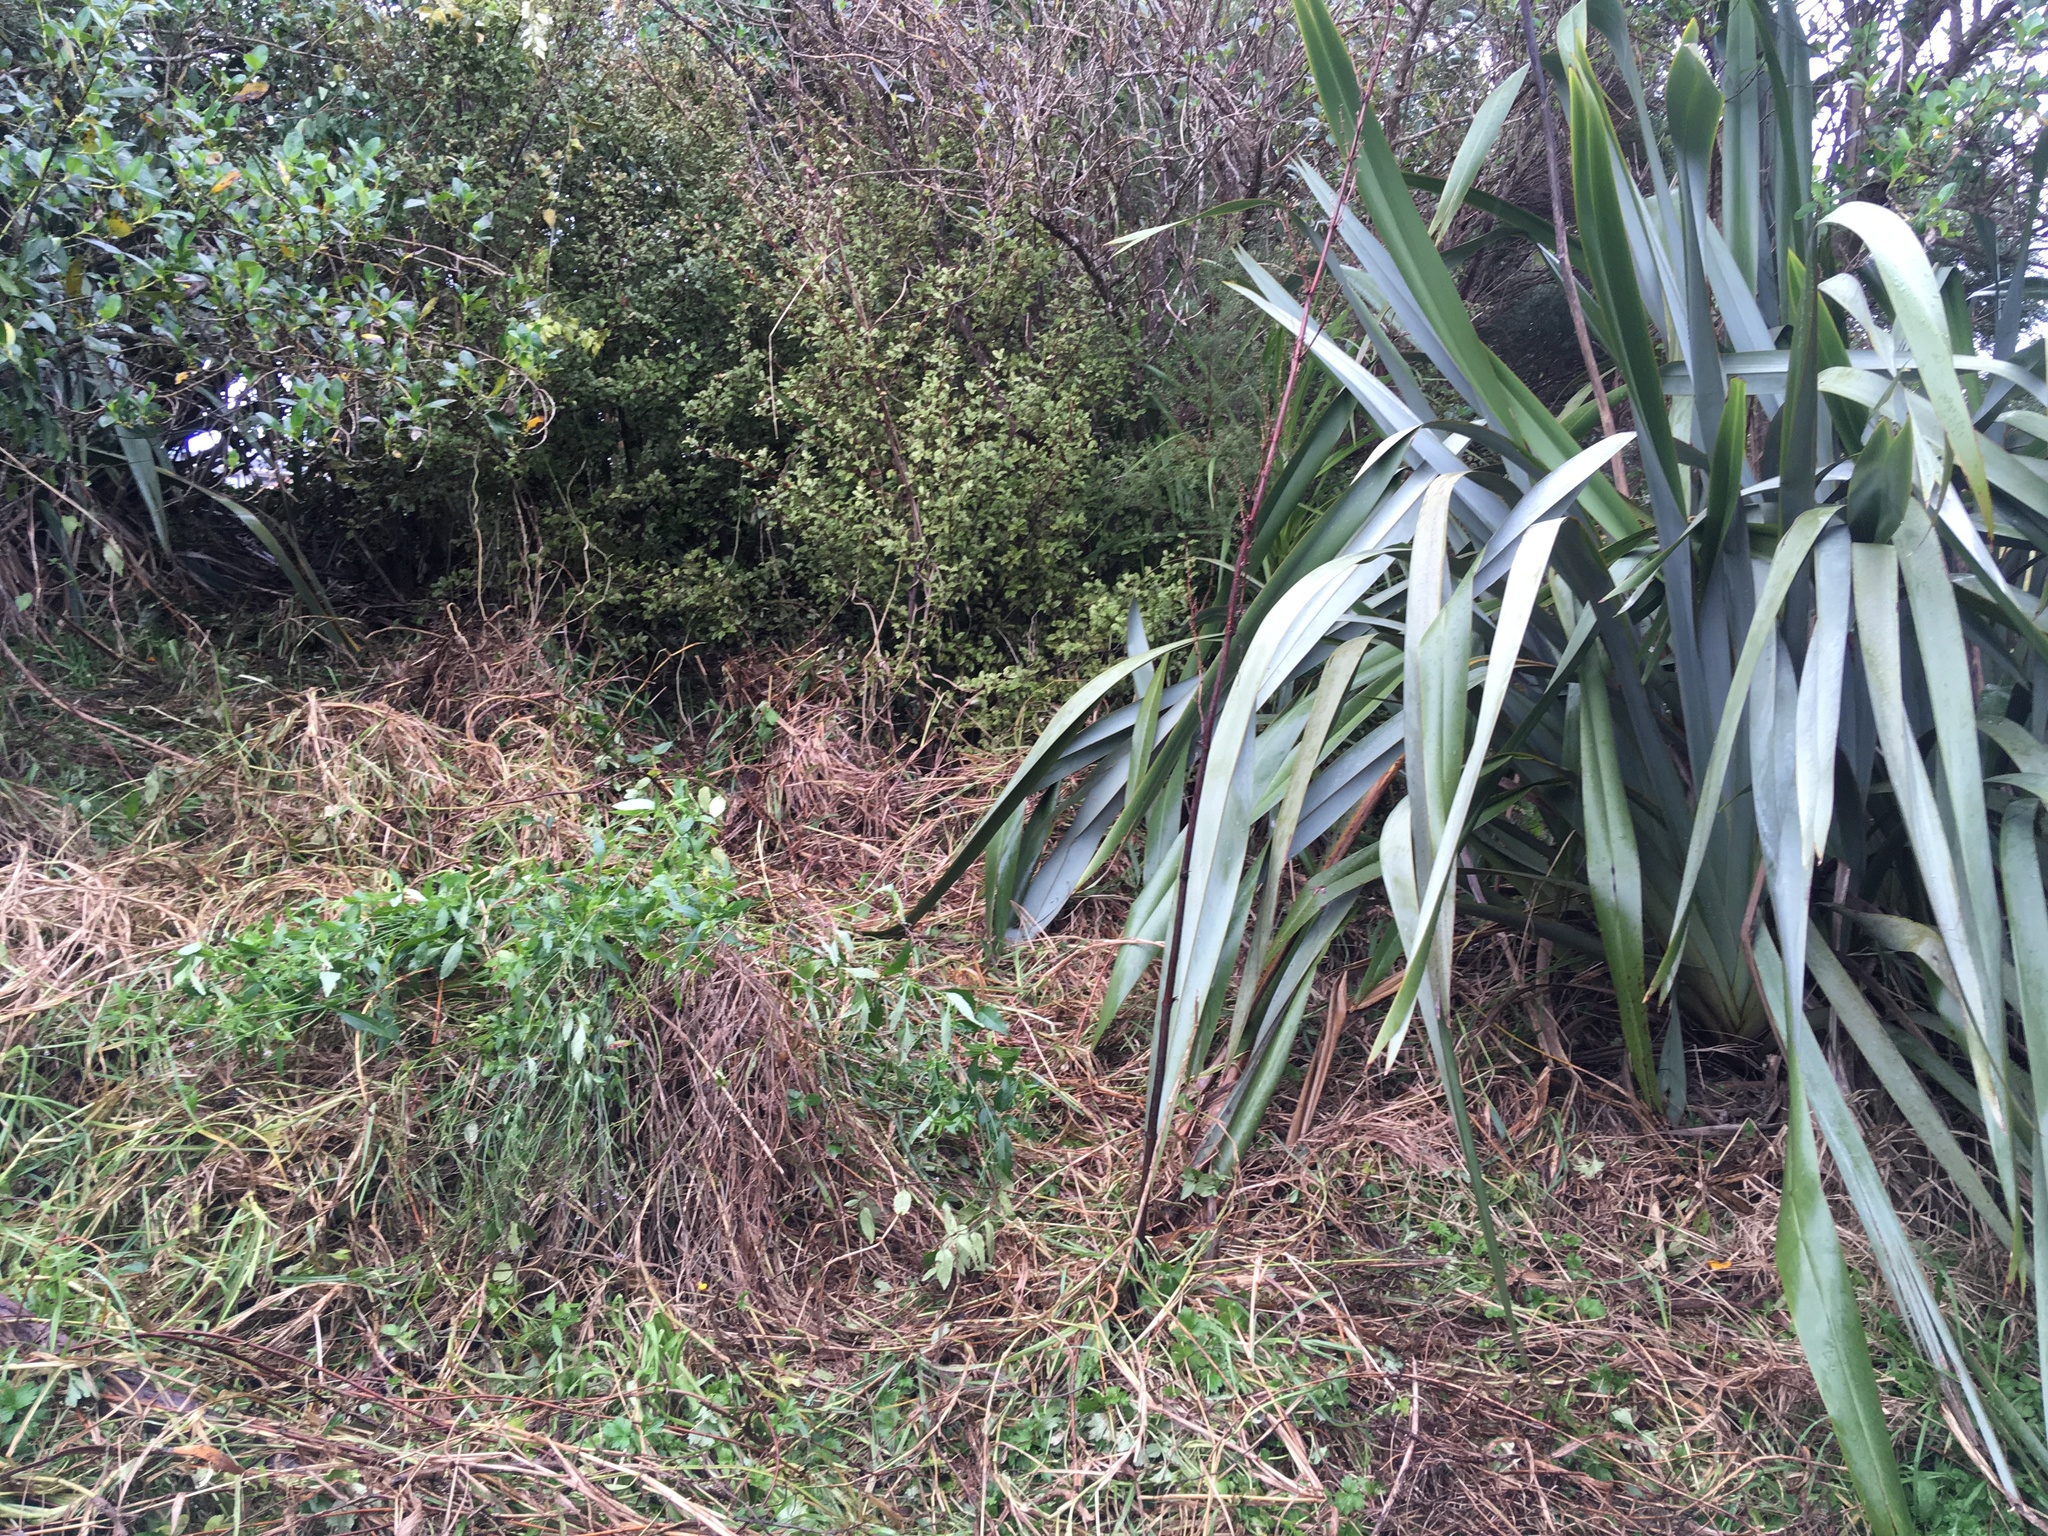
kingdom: Plantae
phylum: Tracheophyta
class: Liliopsida
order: Poales
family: Poaceae
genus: Cenchrus
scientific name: Cenchrus clandestinus
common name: Kikuyugrass
